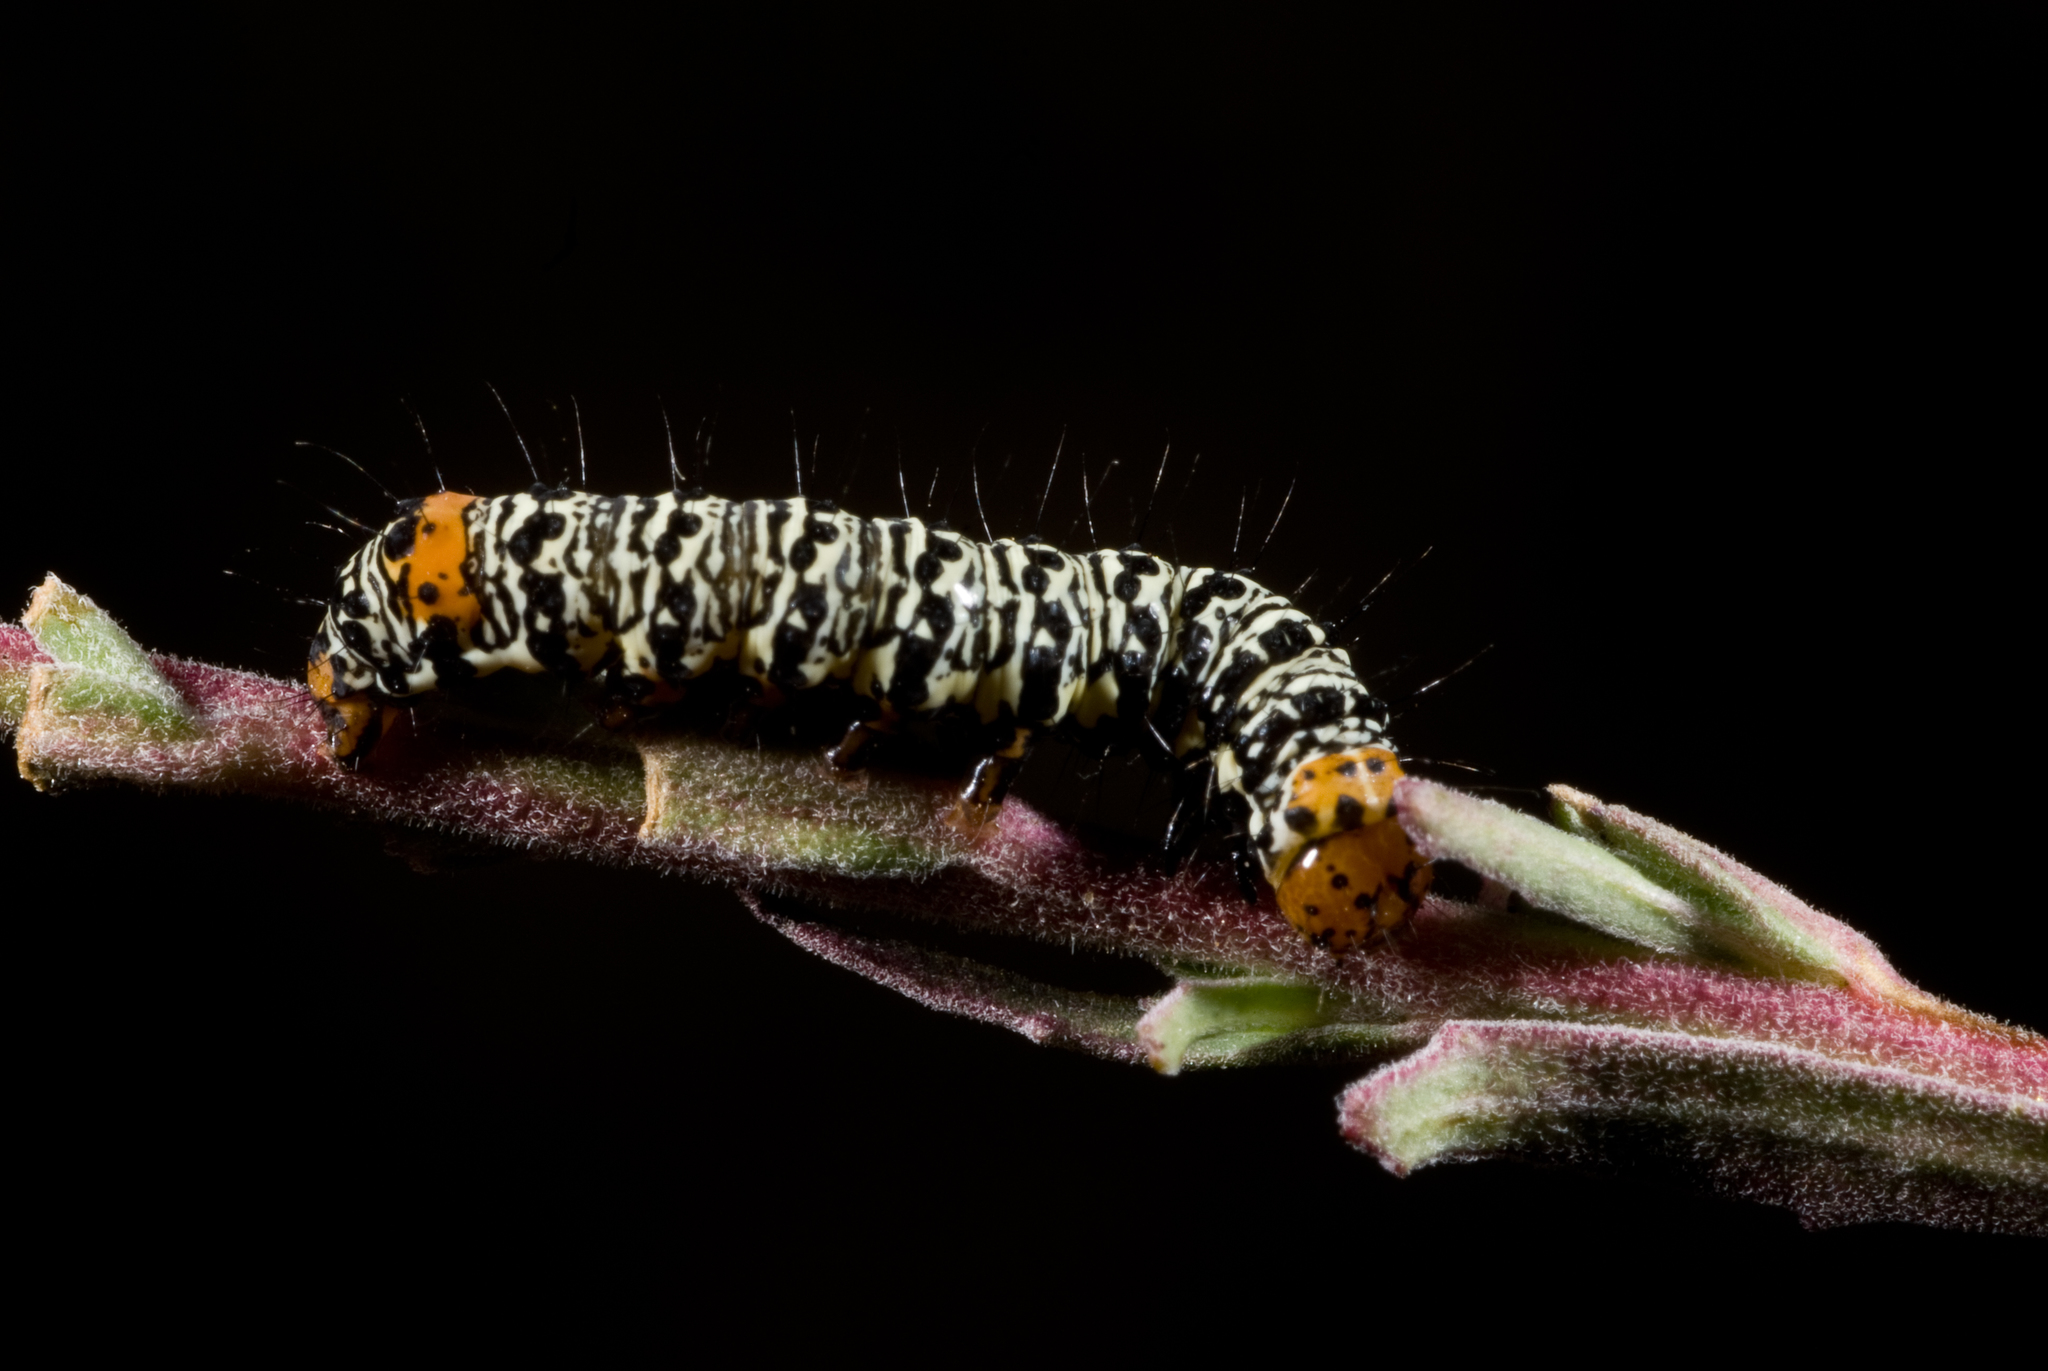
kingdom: Animalia
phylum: Arthropoda
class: Insecta
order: Lepidoptera
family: Noctuidae
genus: Phalaenoides
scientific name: Phalaenoides tristifica
